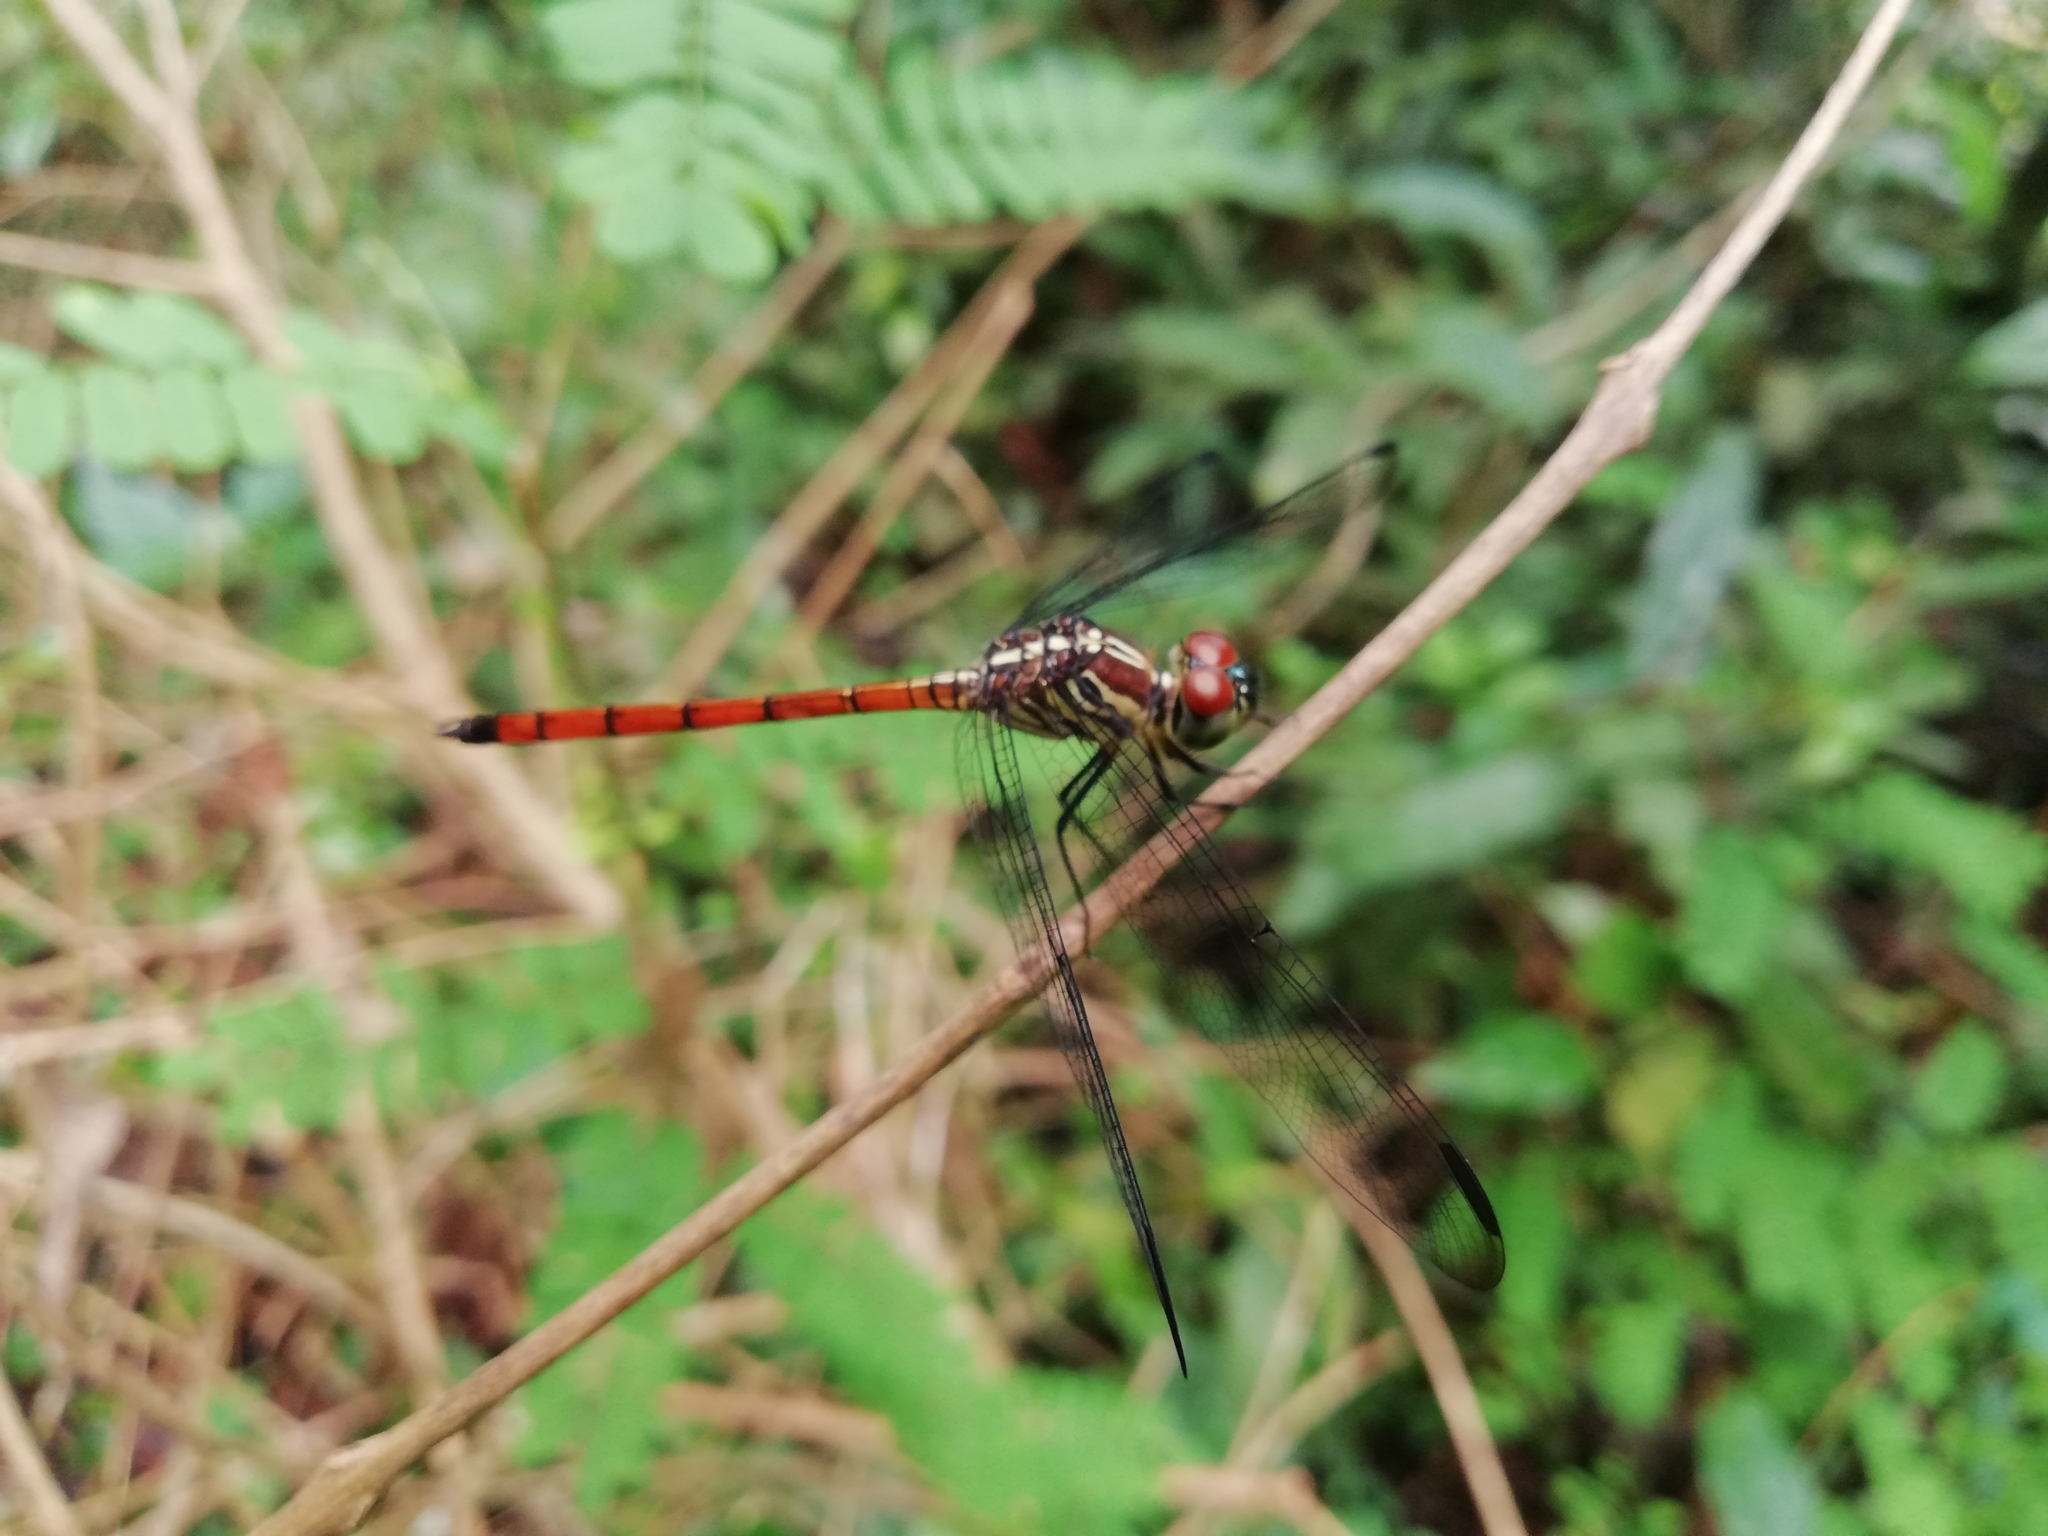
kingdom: Animalia
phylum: Arthropoda
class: Insecta
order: Odonata
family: Libellulidae
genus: Lathrecista
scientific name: Lathrecista asiatica
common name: Scarlet grenadier
